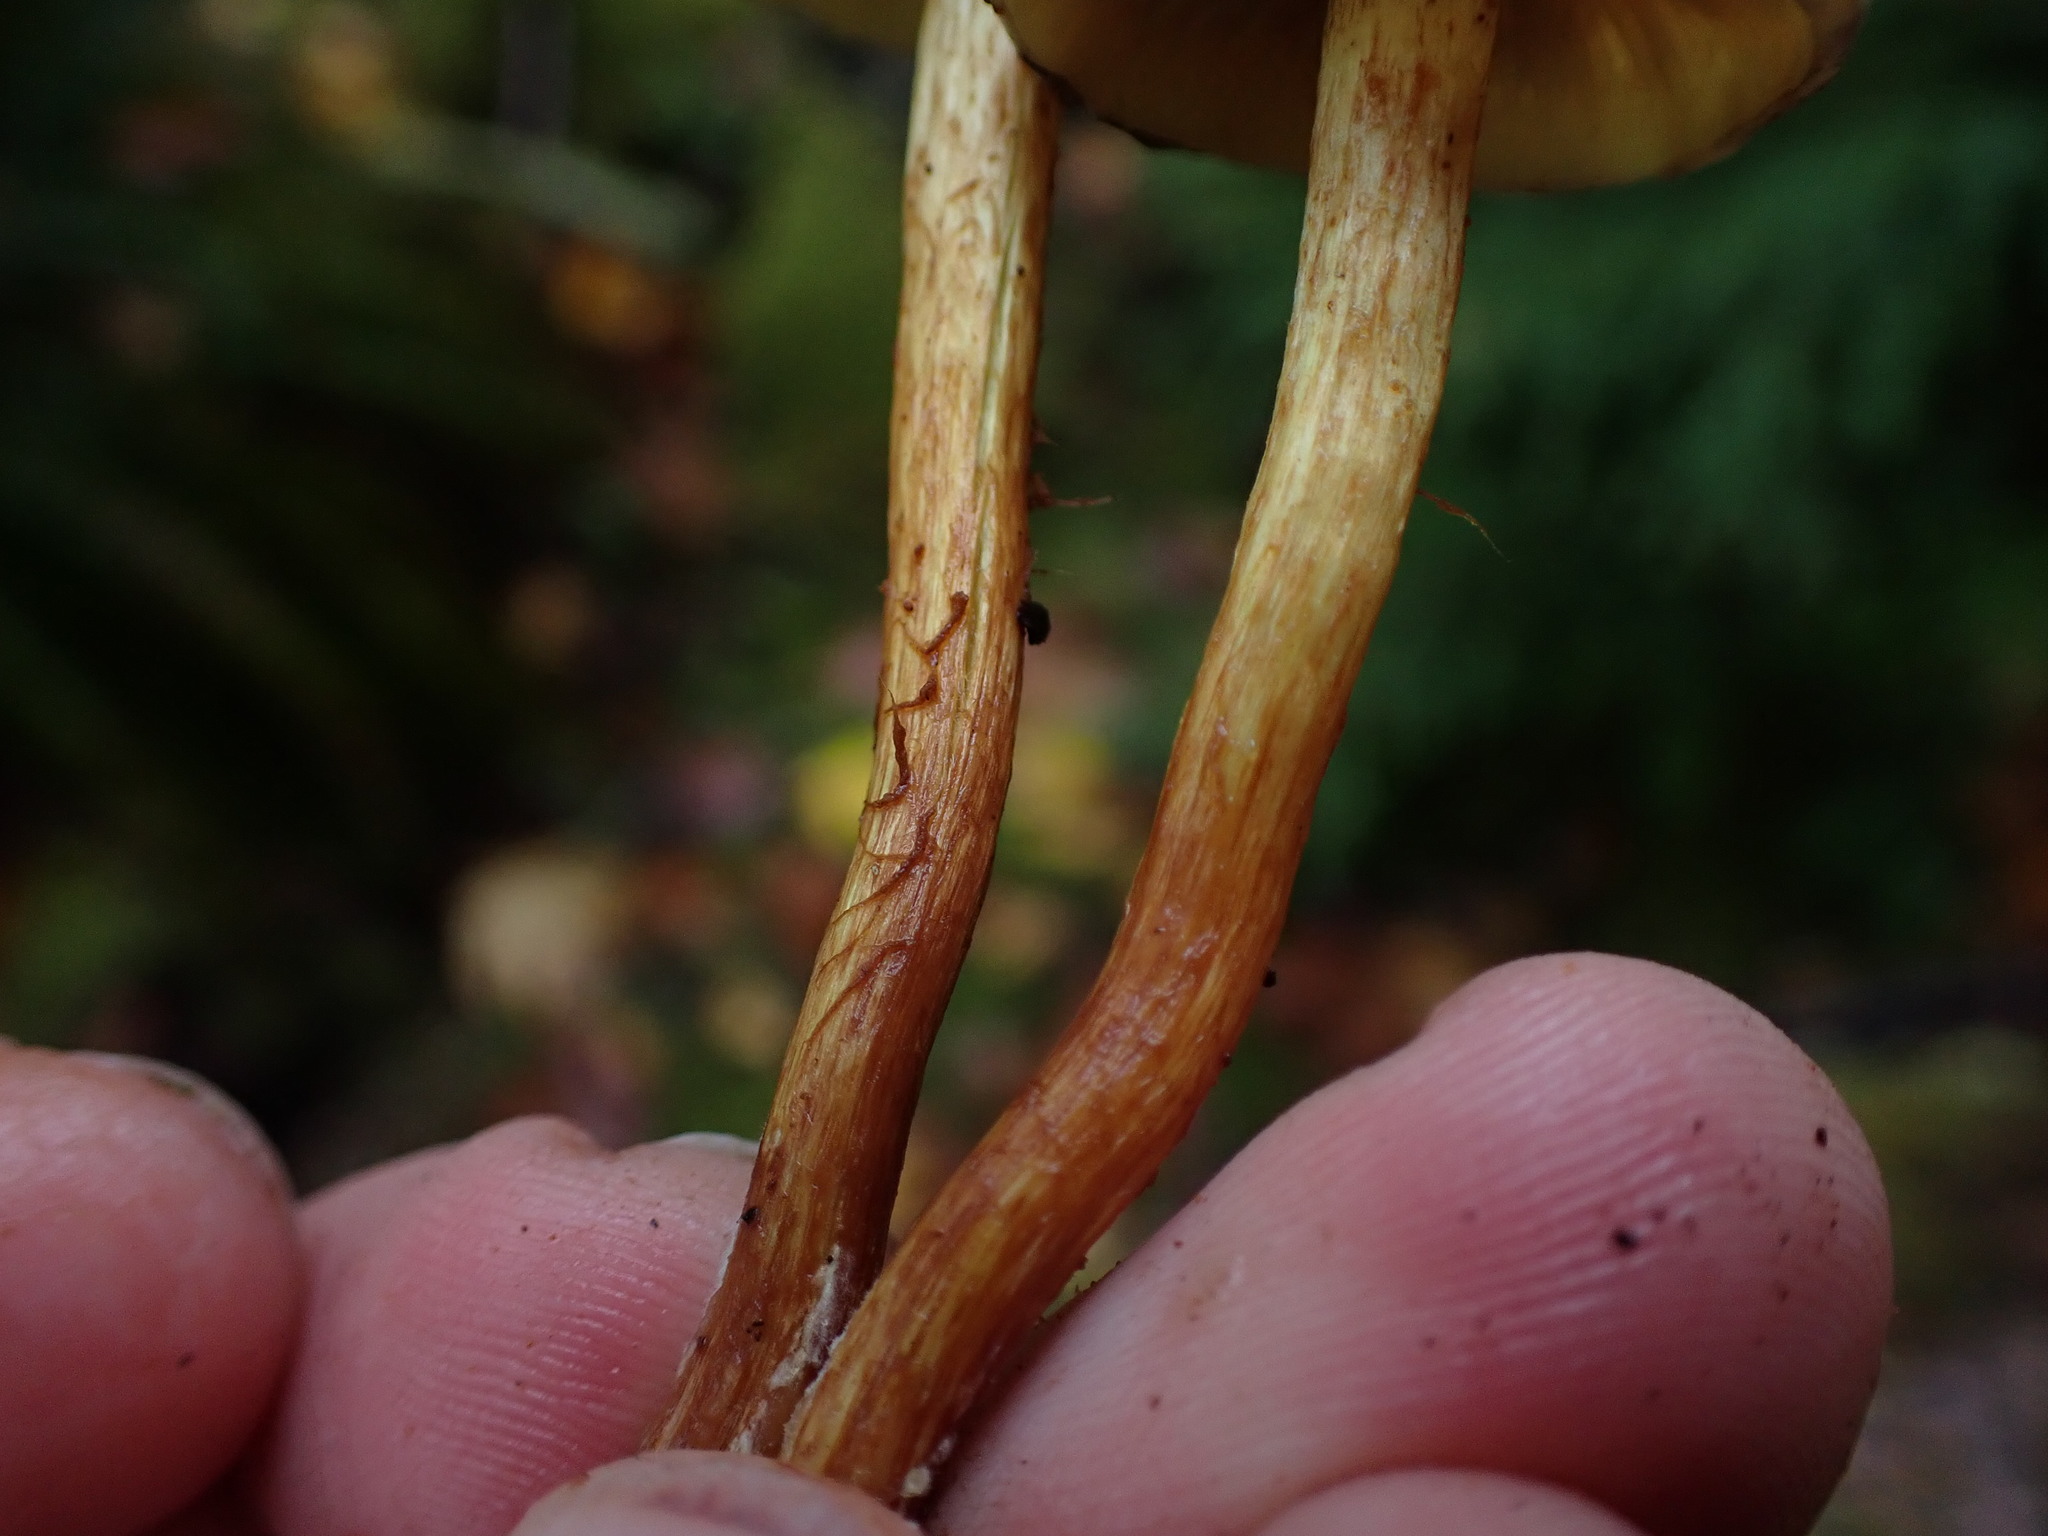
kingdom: Fungi
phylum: Basidiomycota
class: Agaricomycetes
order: Agaricales
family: Strophariaceae
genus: Hypholoma
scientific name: Hypholoma fasciculare
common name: Sulphur tuft
